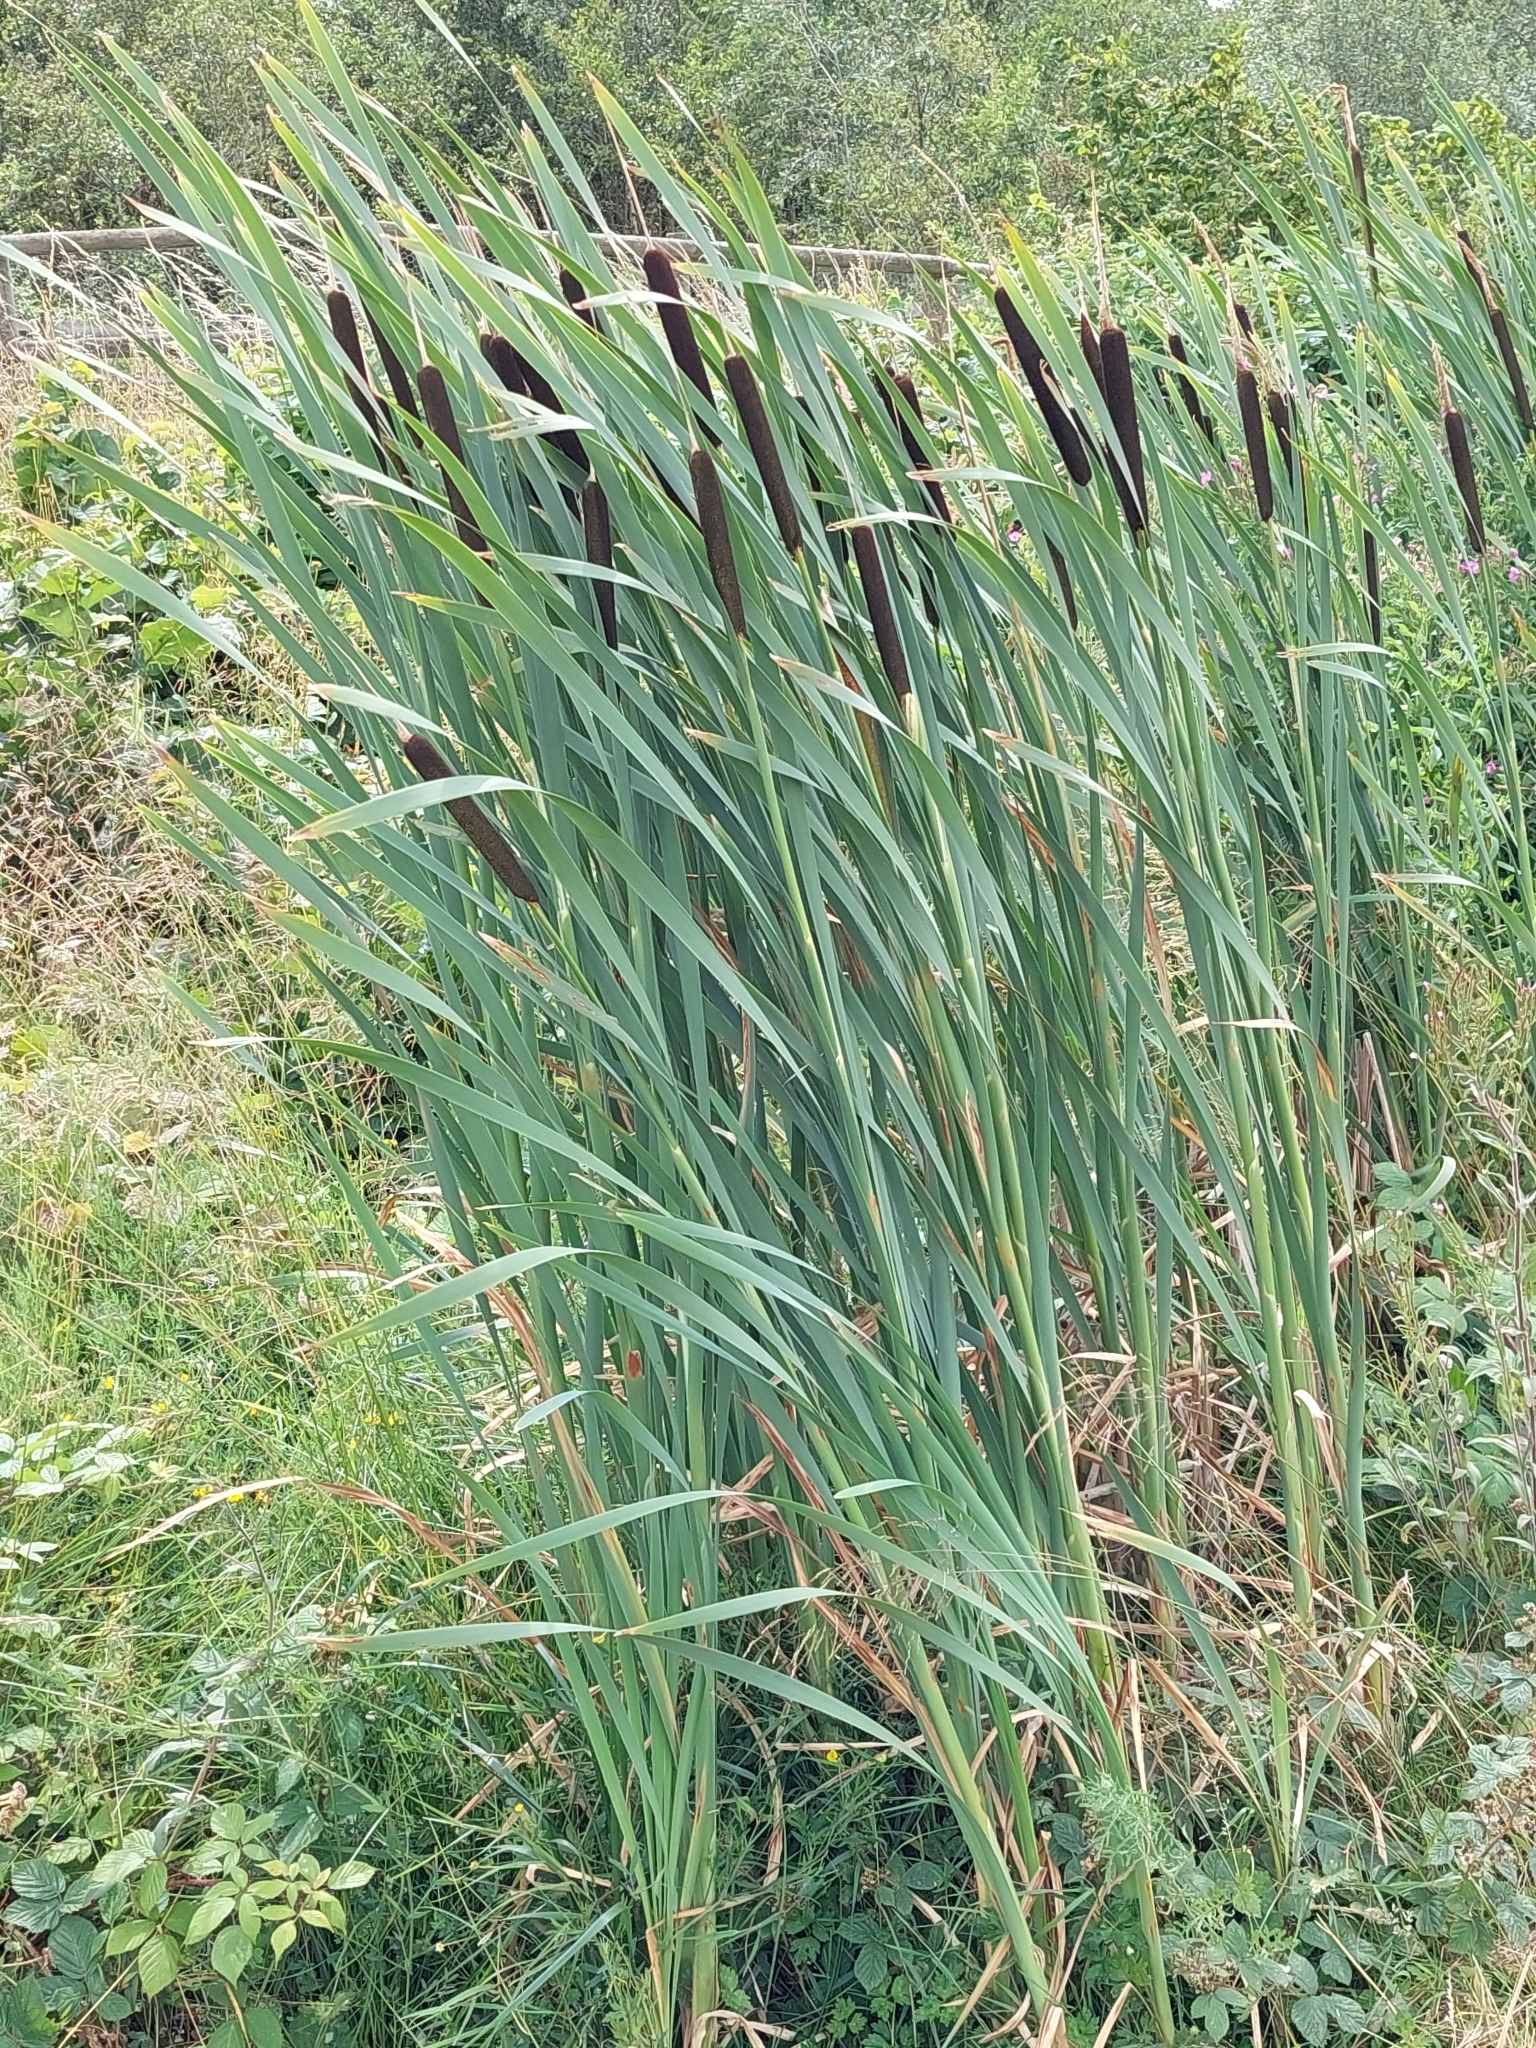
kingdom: Plantae
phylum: Tracheophyta
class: Liliopsida
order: Poales
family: Typhaceae
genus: Typha
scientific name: Typha latifolia
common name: Broadleaf cattail
